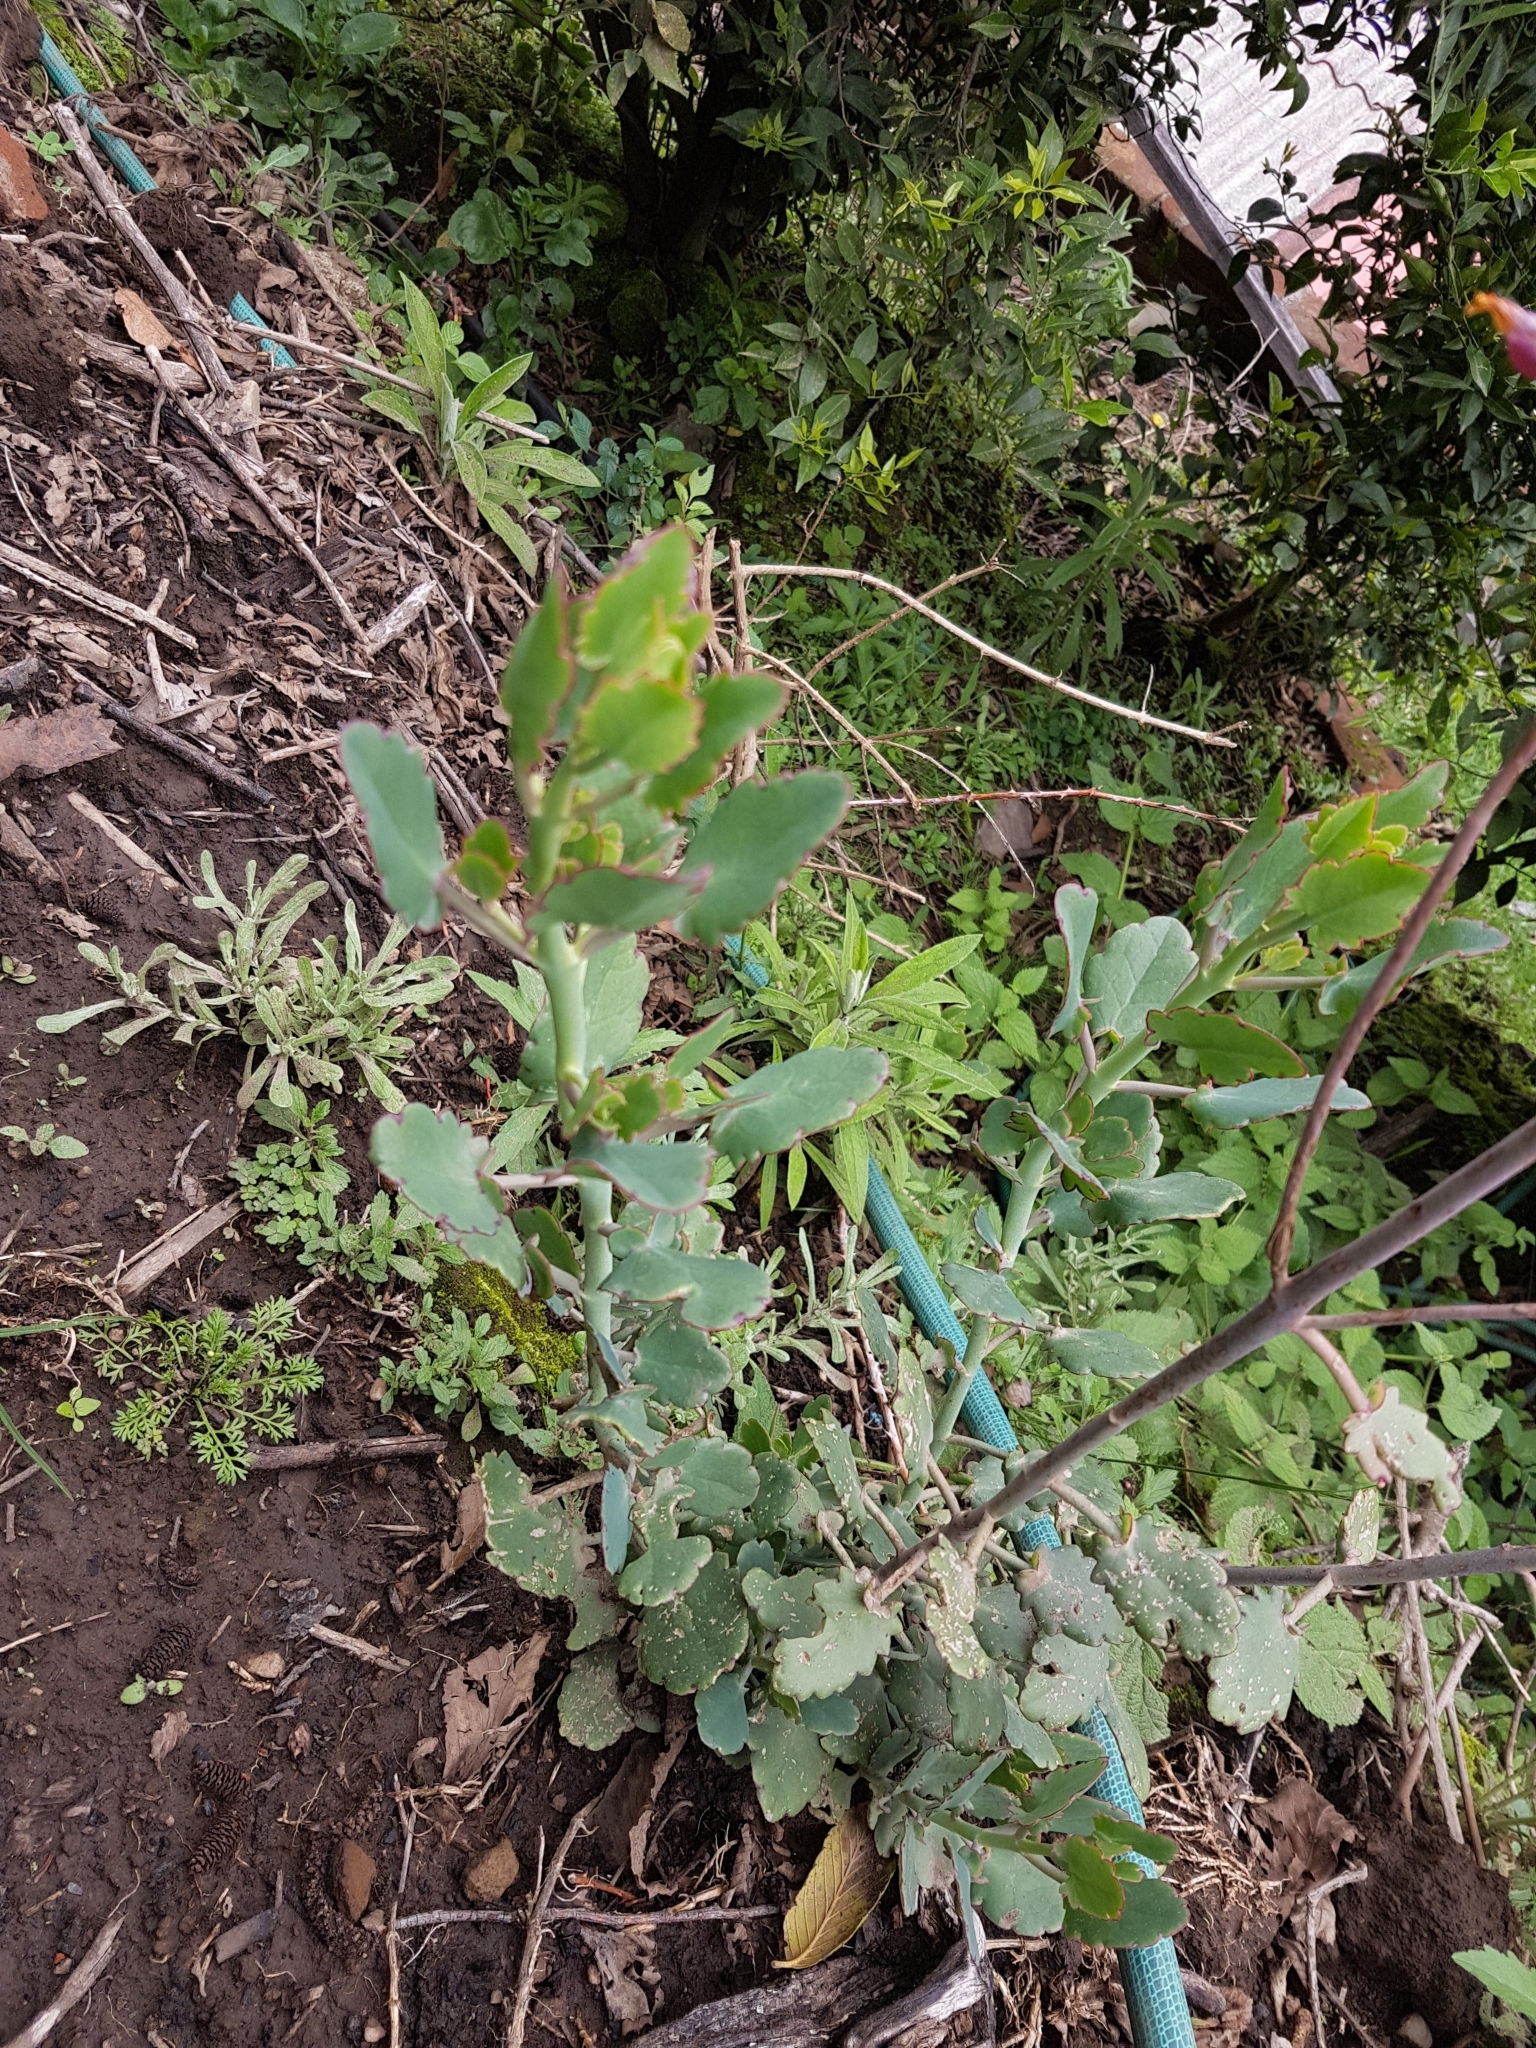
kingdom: Plantae
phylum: Tracheophyta
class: Magnoliopsida
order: Saxifragales
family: Crassulaceae
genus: Kalanchoe
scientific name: Kalanchoe laxiflora
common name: Milky widow's thrill
